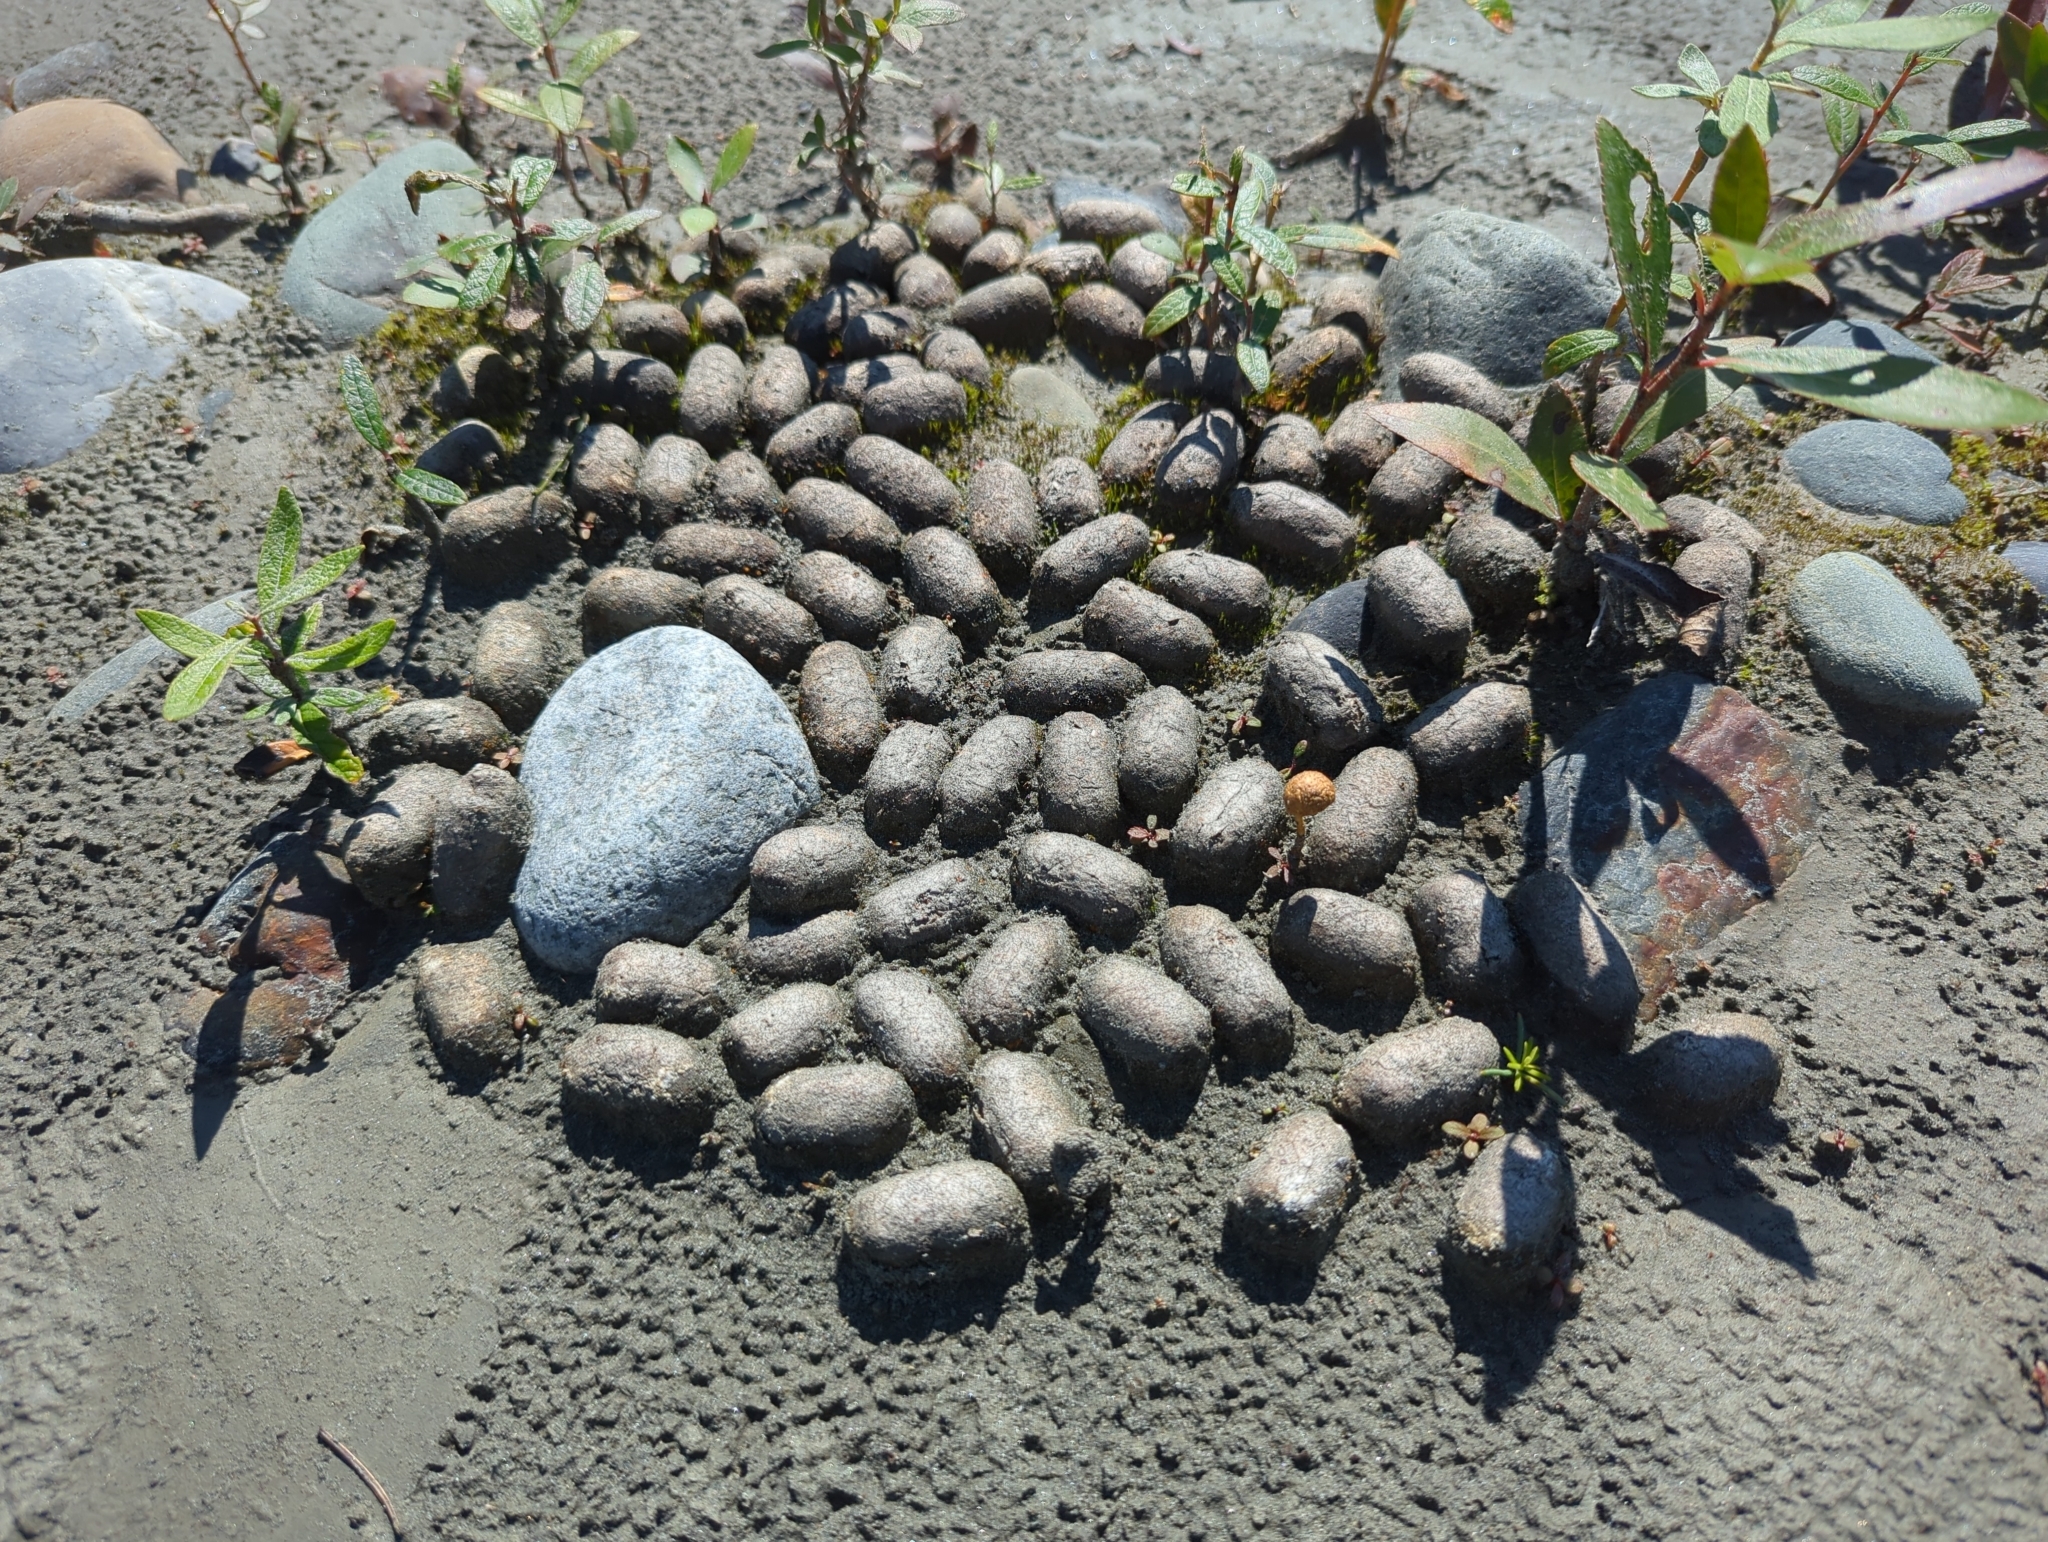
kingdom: Animalia
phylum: Chordata
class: Mammalia
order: Artiodactyla
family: Cervidae
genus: Alces
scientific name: Alces alces
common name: Moose
